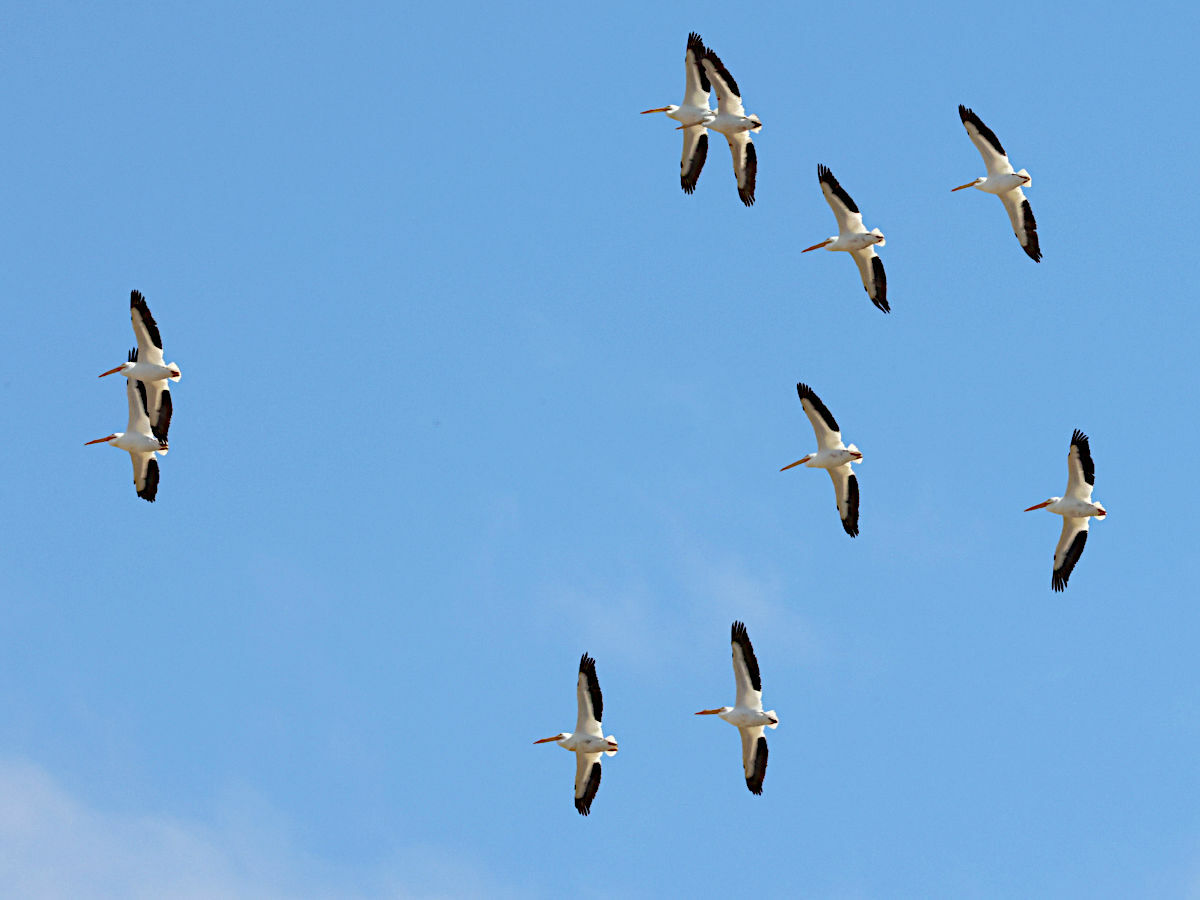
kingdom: Animalia
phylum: Chordata
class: Aves
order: Pelecaniformes
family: Pelecanidae
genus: Pelecanus
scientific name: Pelecanus erythrorhynchos
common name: American white pelican
